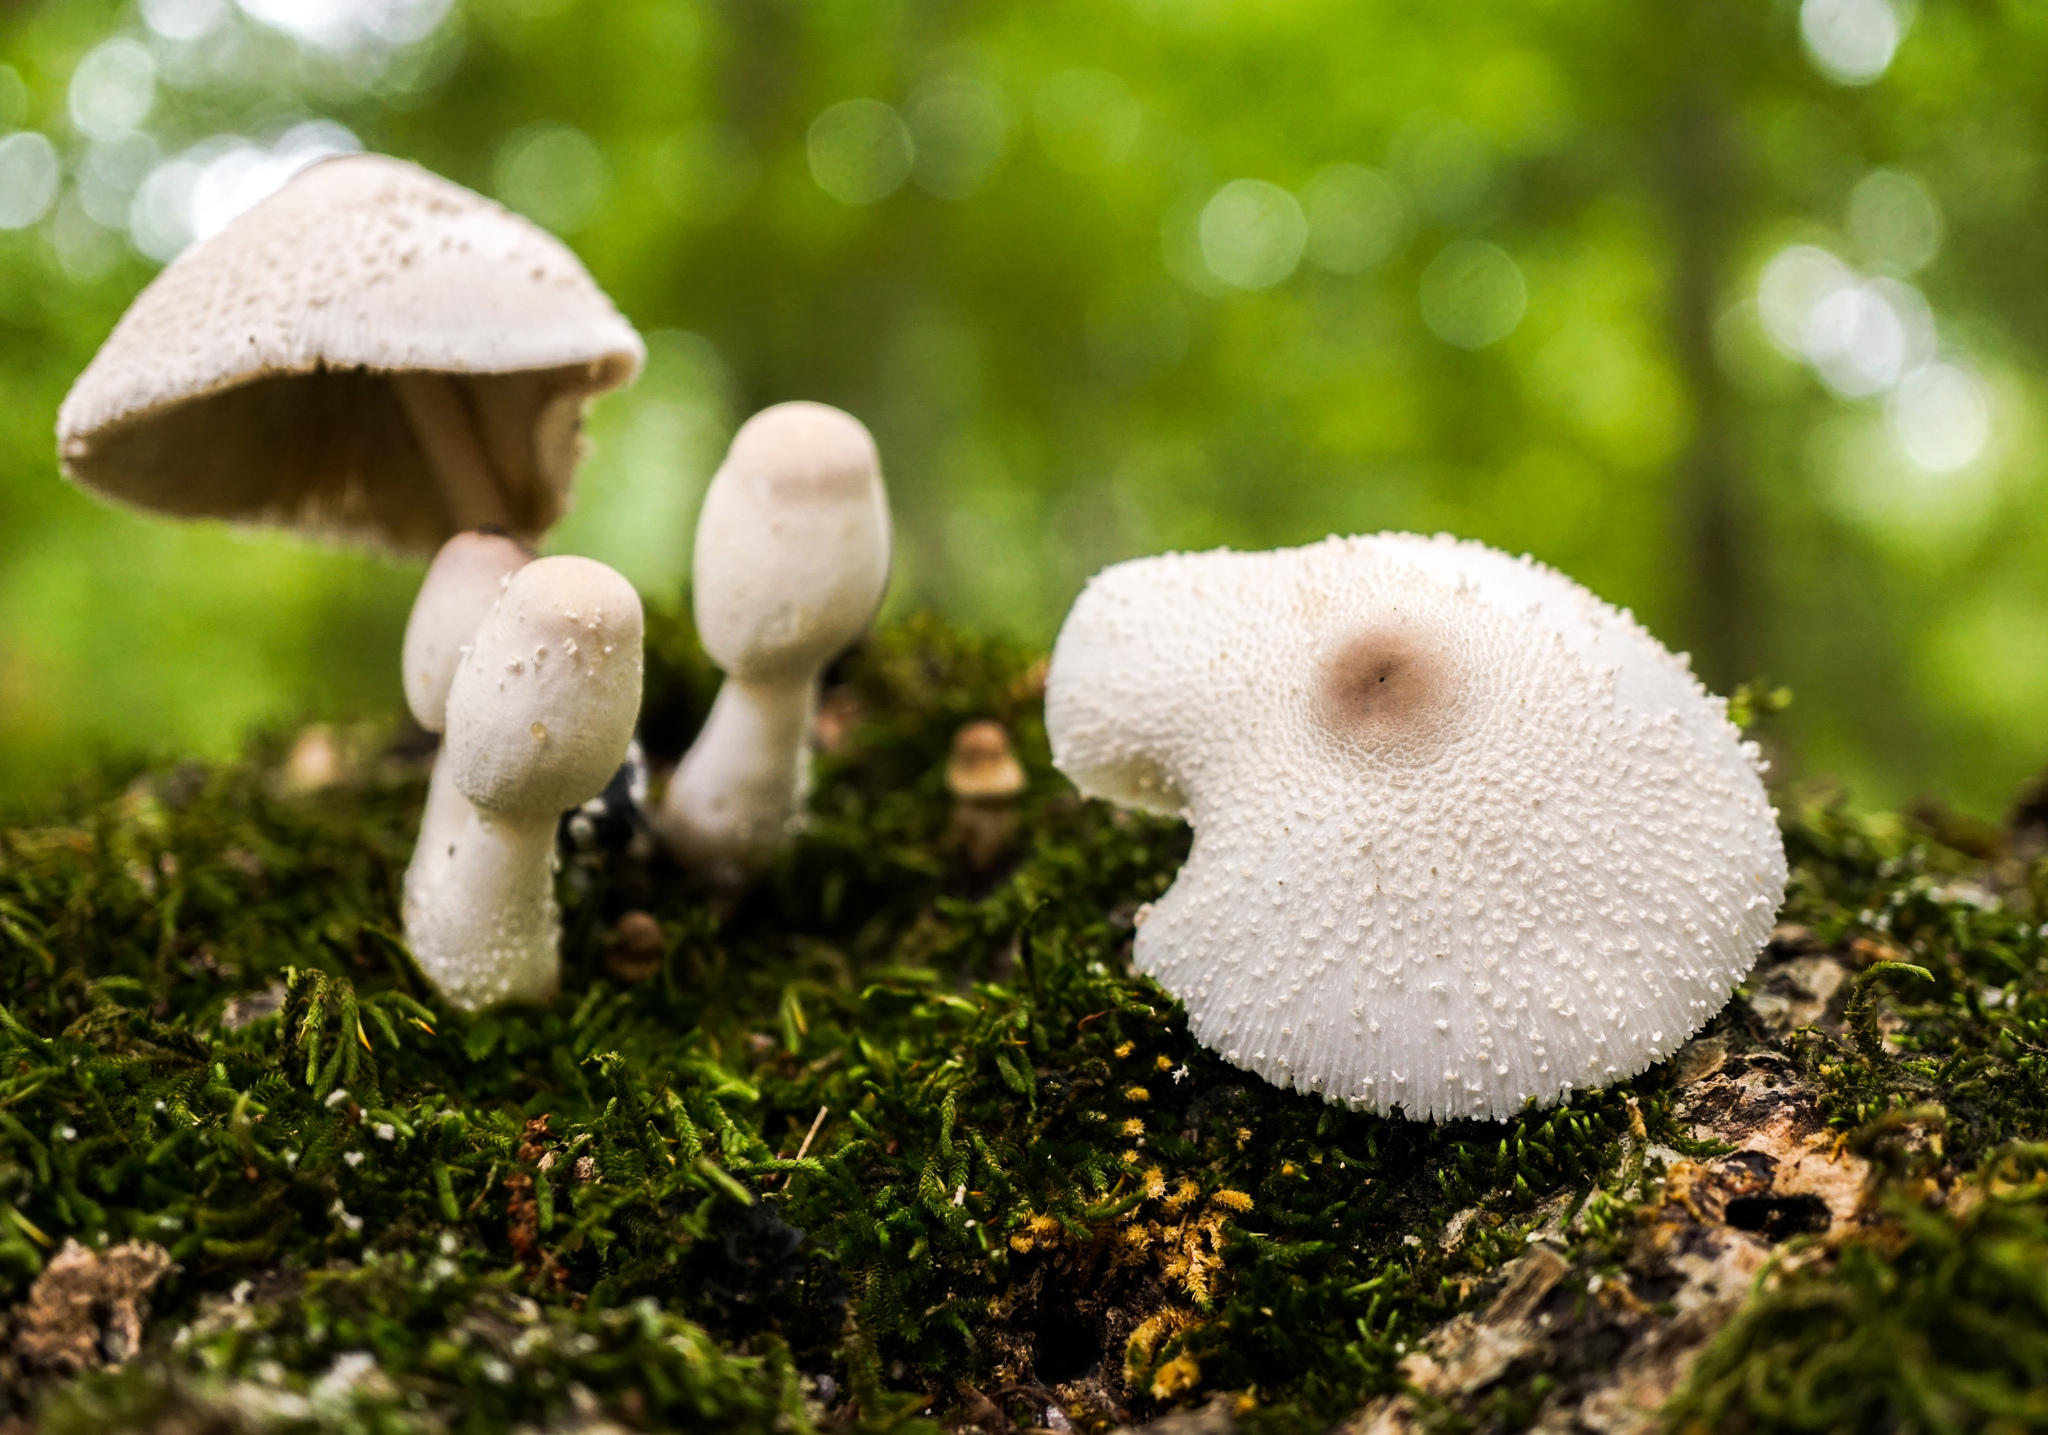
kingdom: Fungi
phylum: Basidiomycota
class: Agaricomycetes
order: Agaricales
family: Agaricaceae
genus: Leucocoprinus
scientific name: Leucocoprinus cepistipes
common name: Onion-stalk parasol
